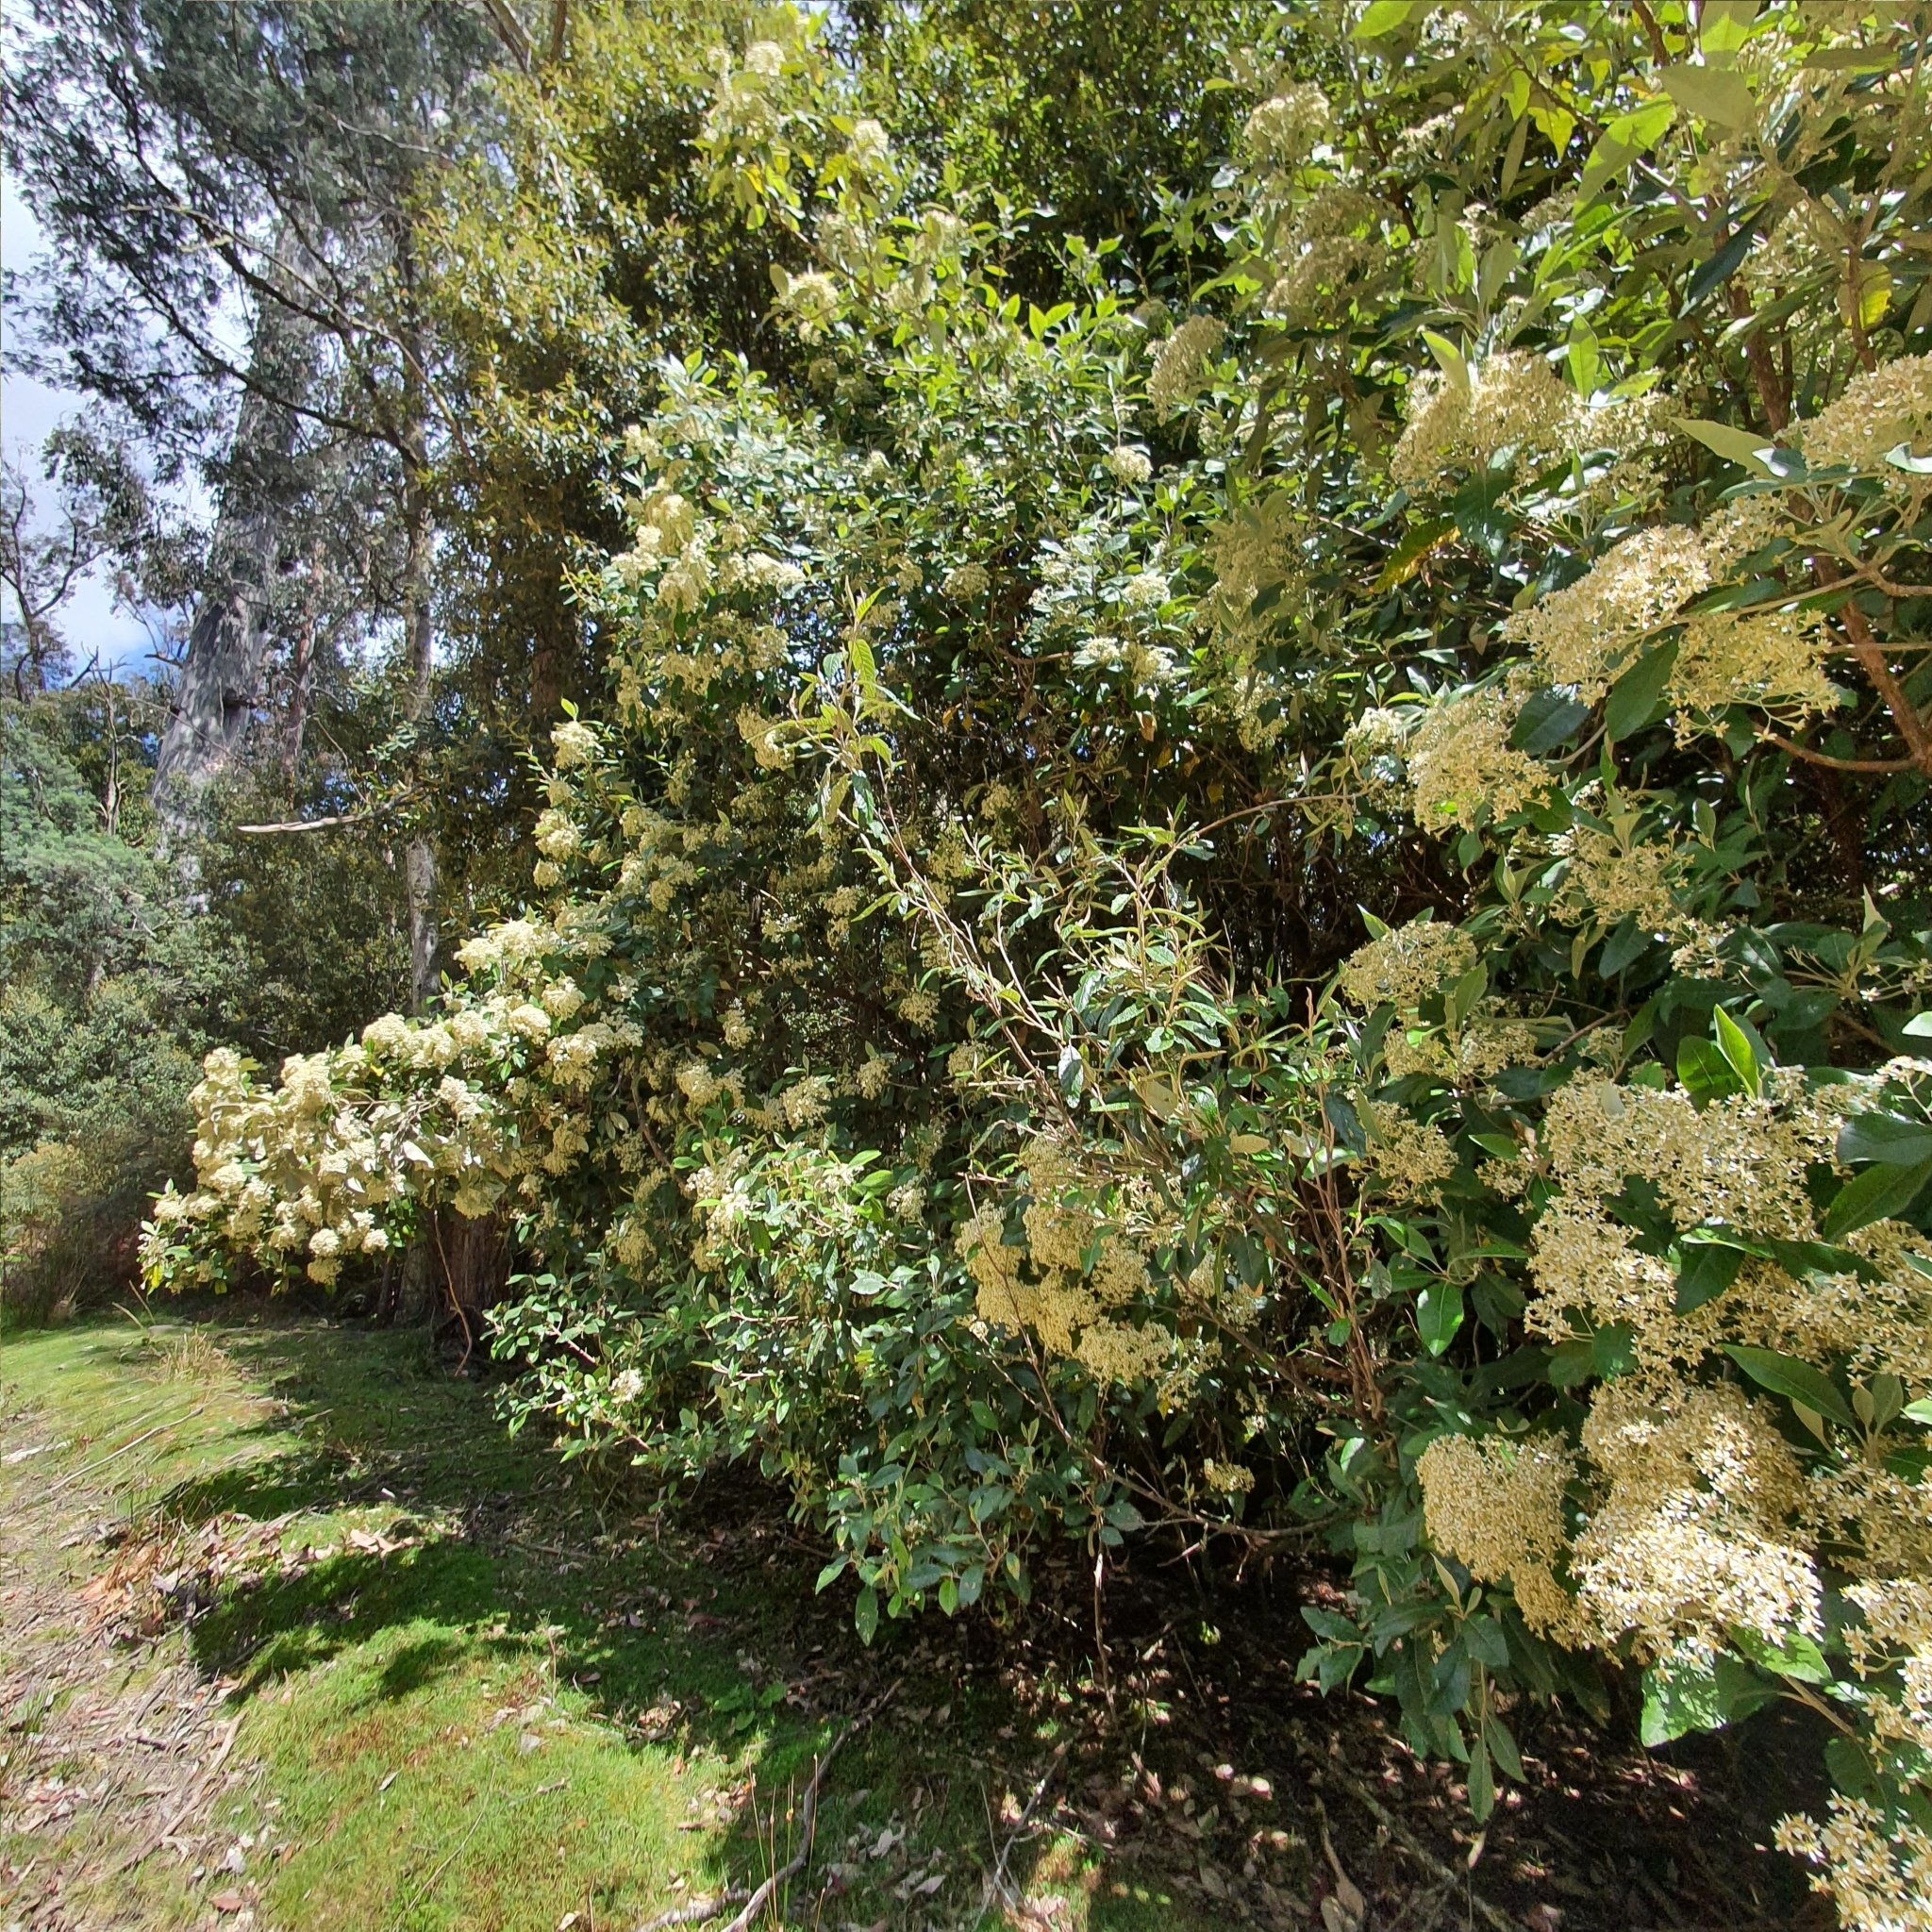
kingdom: Plantae
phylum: Tracheophyta
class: Magnoliopsida
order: Asterales
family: Asteraceae
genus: Olearia
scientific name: Olearia argophylla
